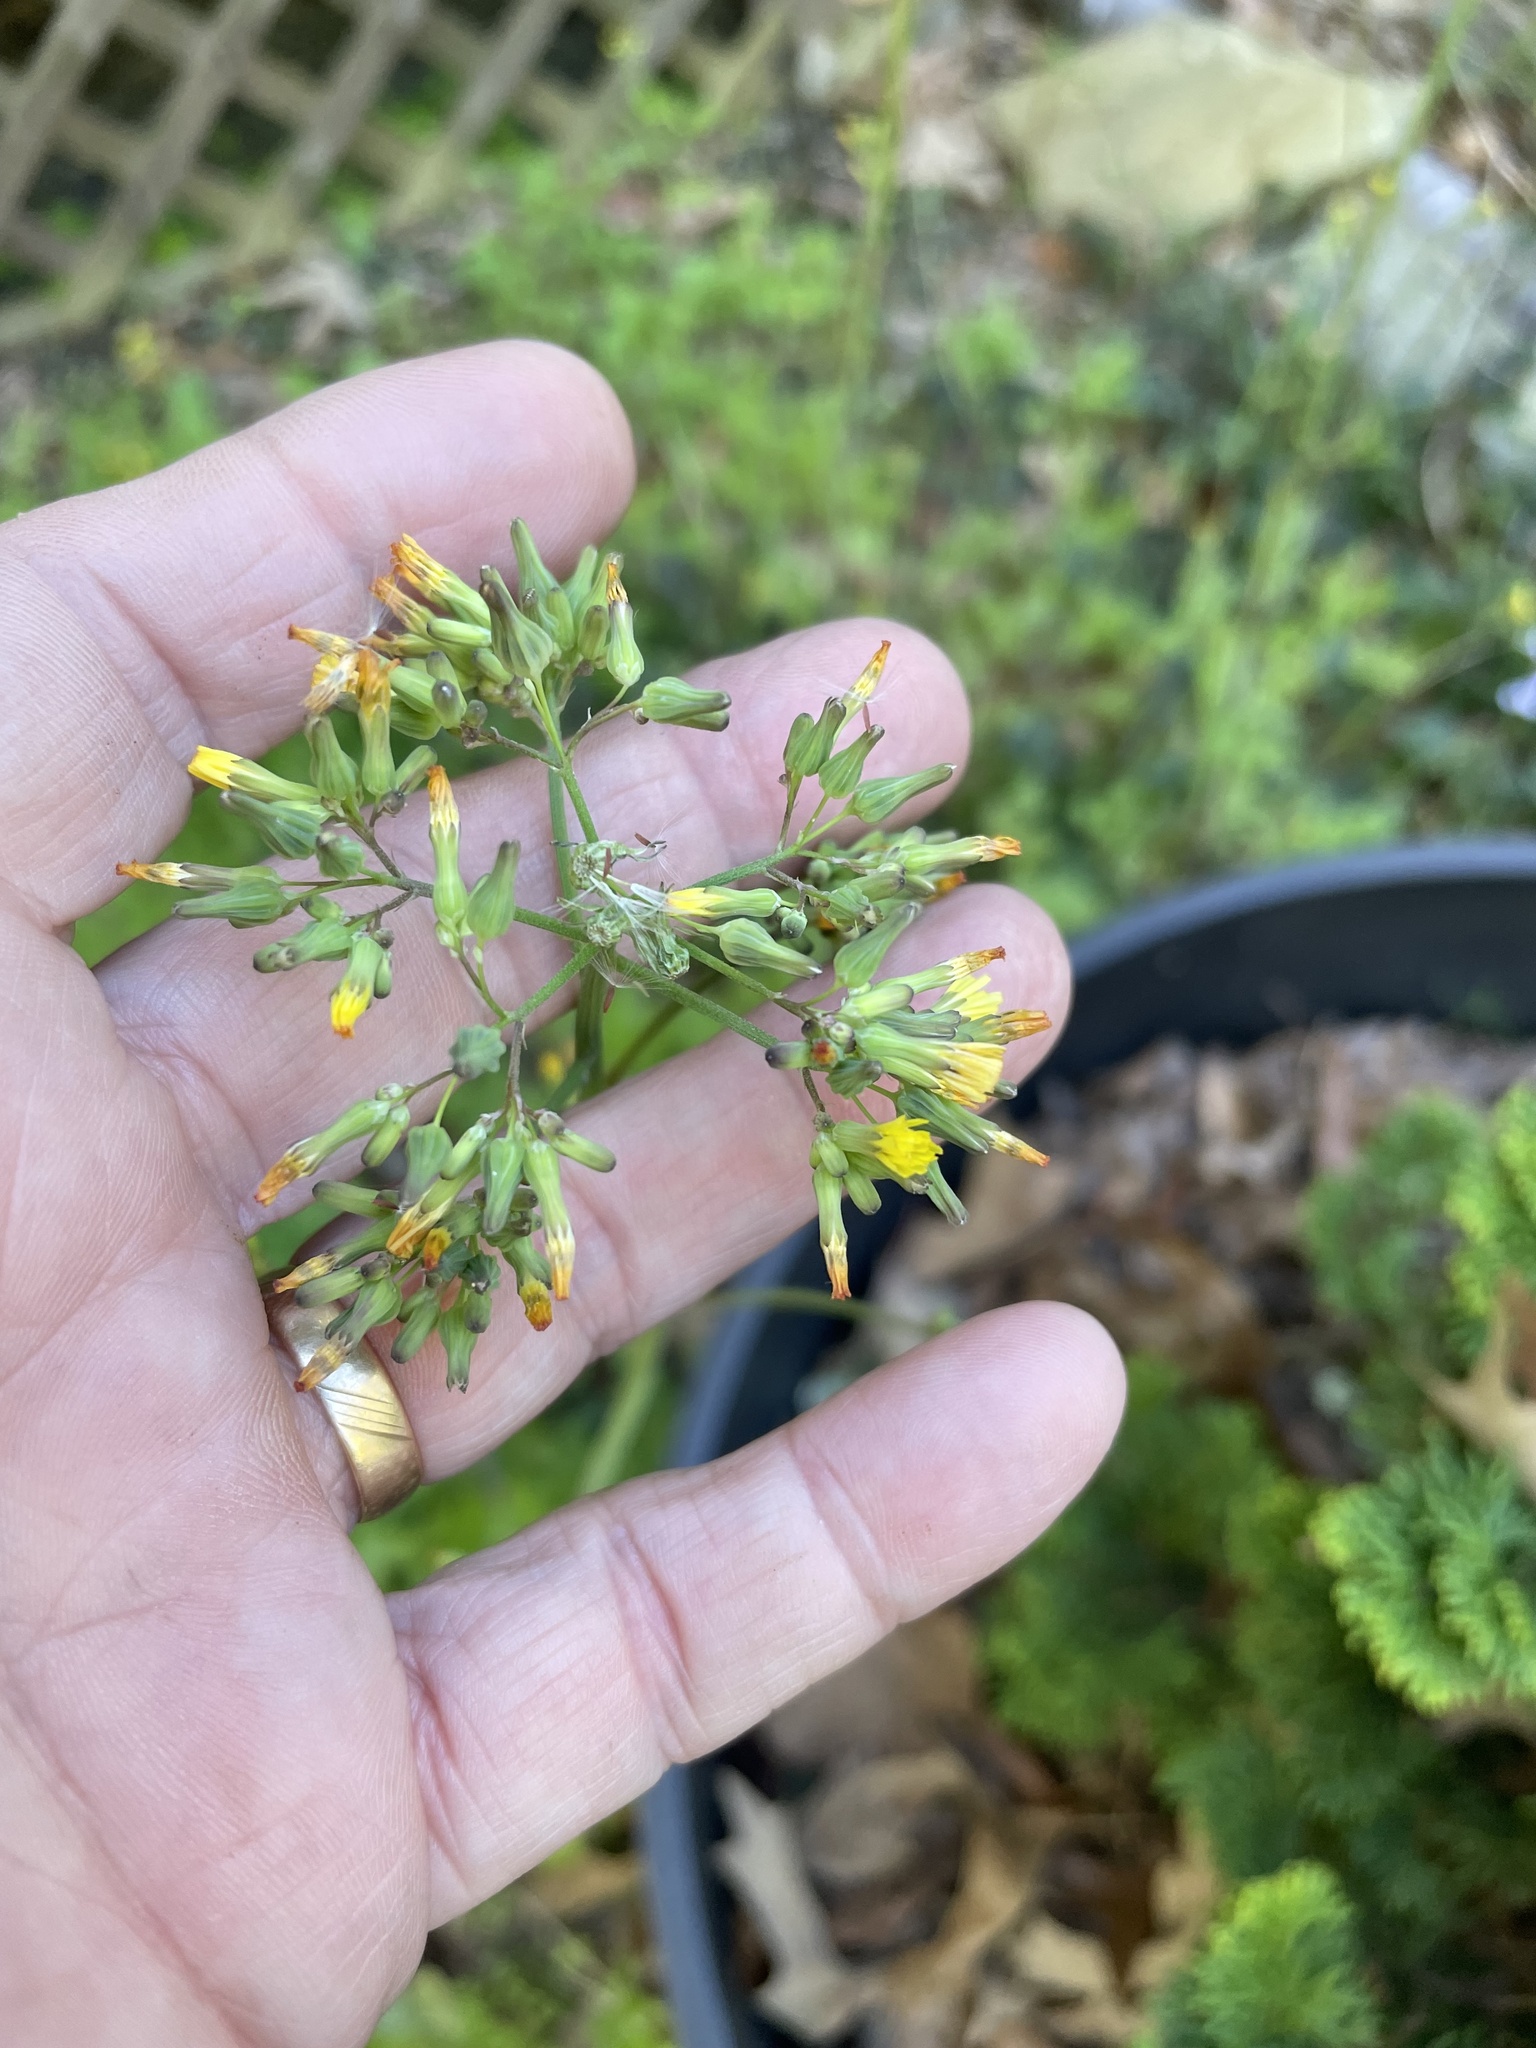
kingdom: Plantae
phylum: Tracheophyta
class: Magnoliopsida
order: Asterales
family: Asteraceae
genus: Youngia
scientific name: Youngia japonica
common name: Oriental false hawksbeard
